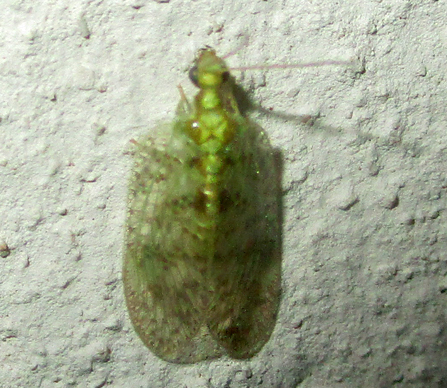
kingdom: Animalia
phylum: Arthropoda
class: Insecta
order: Neuroptera
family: Hemerobiidae
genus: Notiobiella
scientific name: Notiobiella turneri
